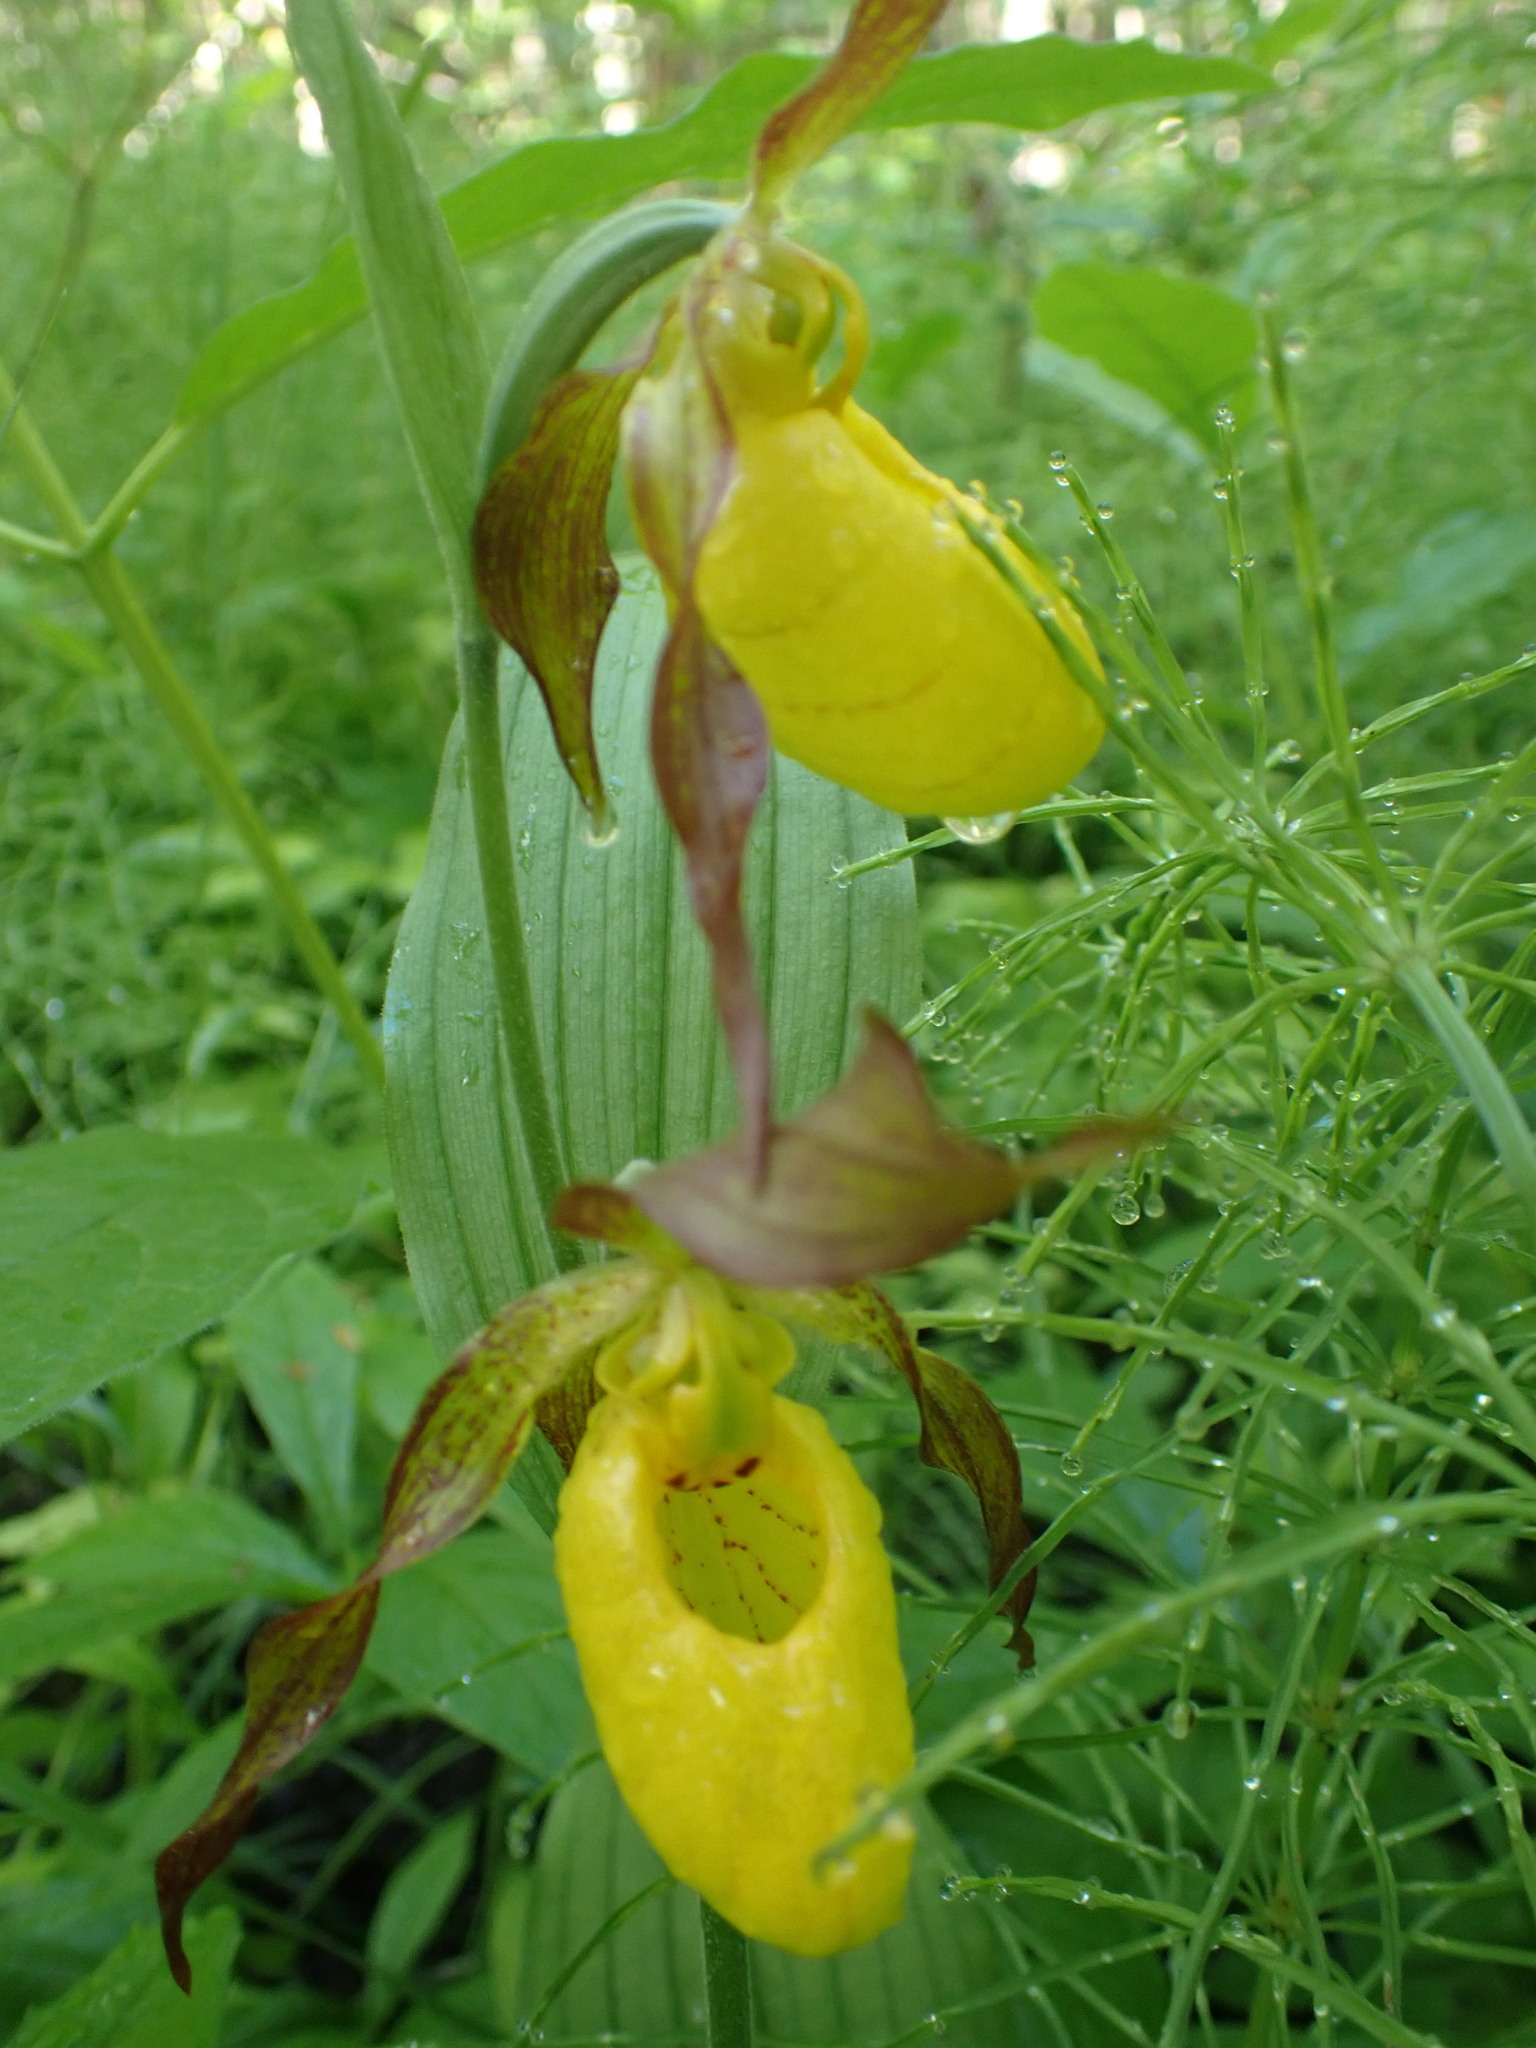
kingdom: Plantae
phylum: Tracheophyta
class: Liliopsida
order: Asparagales
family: Orchidaceae
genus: Cypripedium
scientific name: Cypripedium parviflorum
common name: American yellow lady's-slipper
